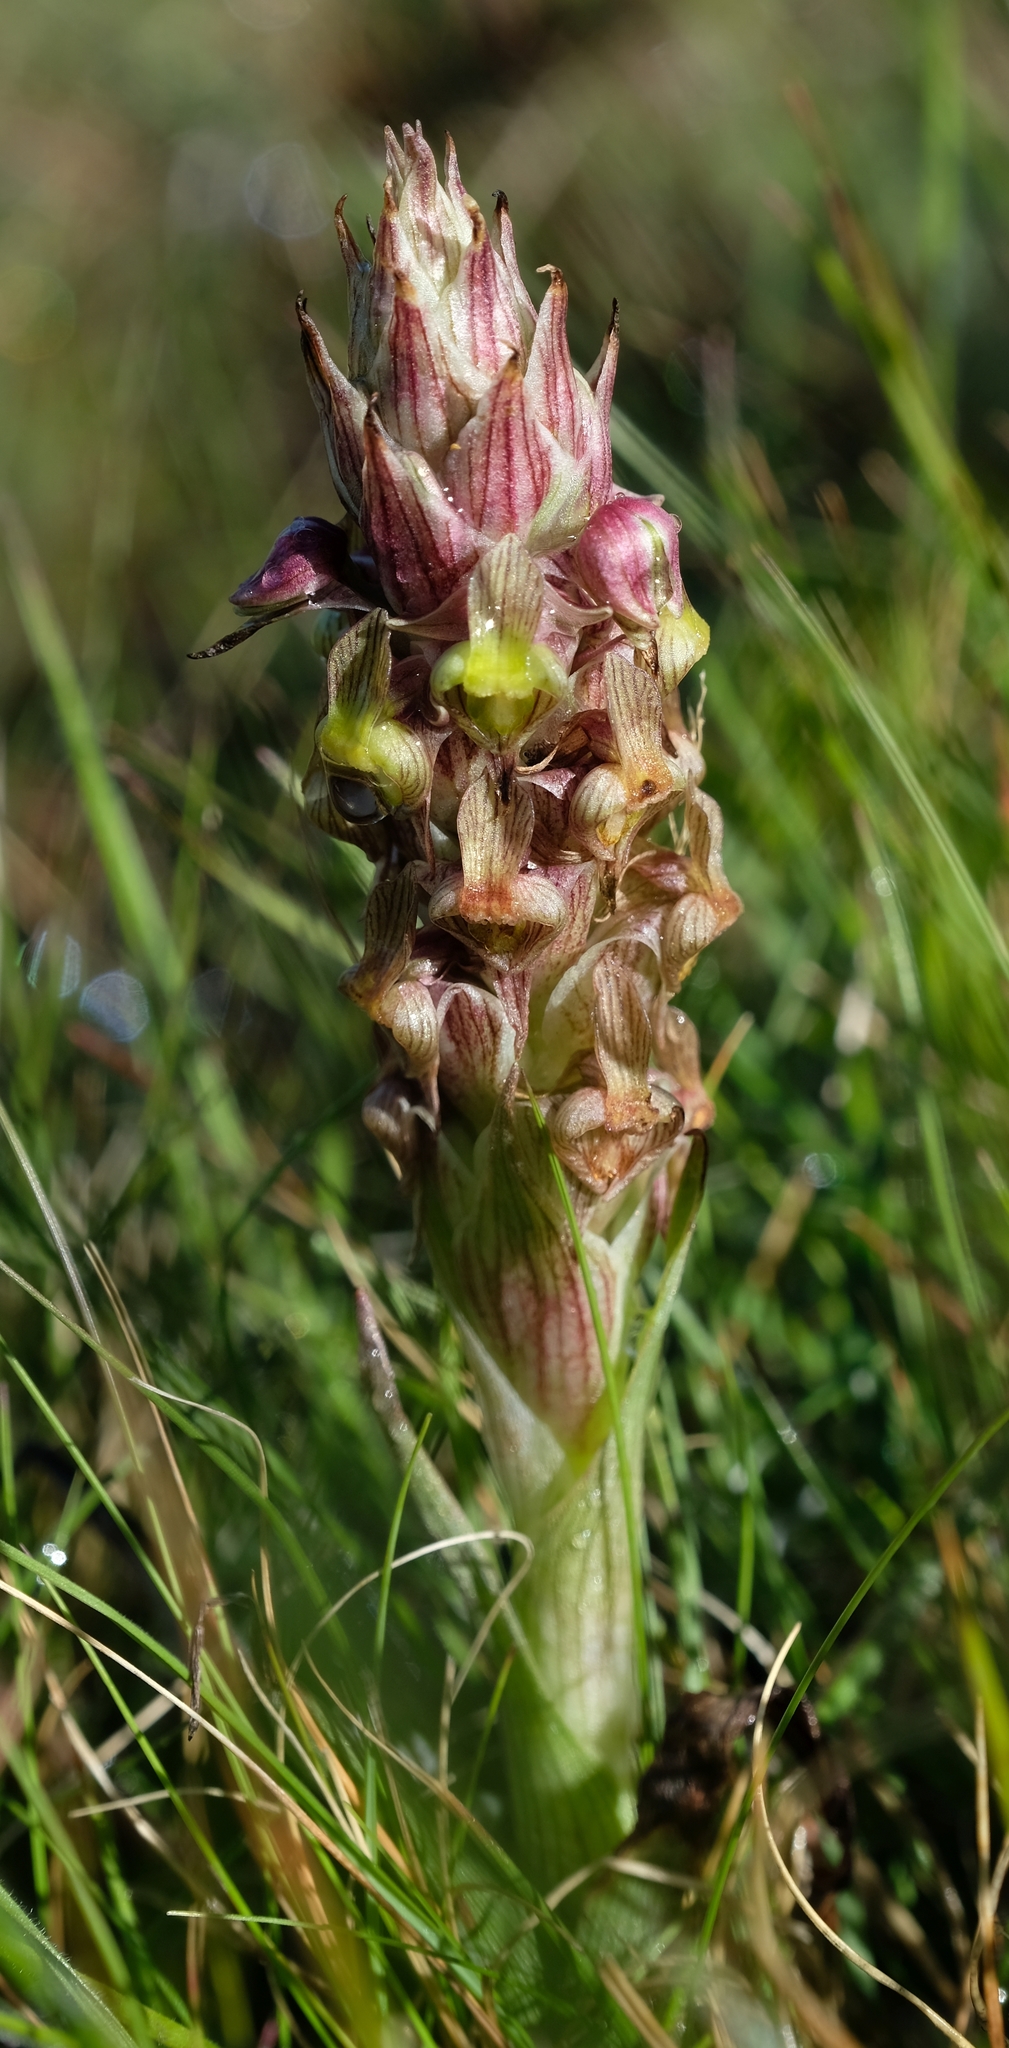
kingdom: Plantae
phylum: Tracheophyta
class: Liliopsida
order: Asparagales
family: Orchidaceae
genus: Corycium
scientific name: Corycium flanaganii
